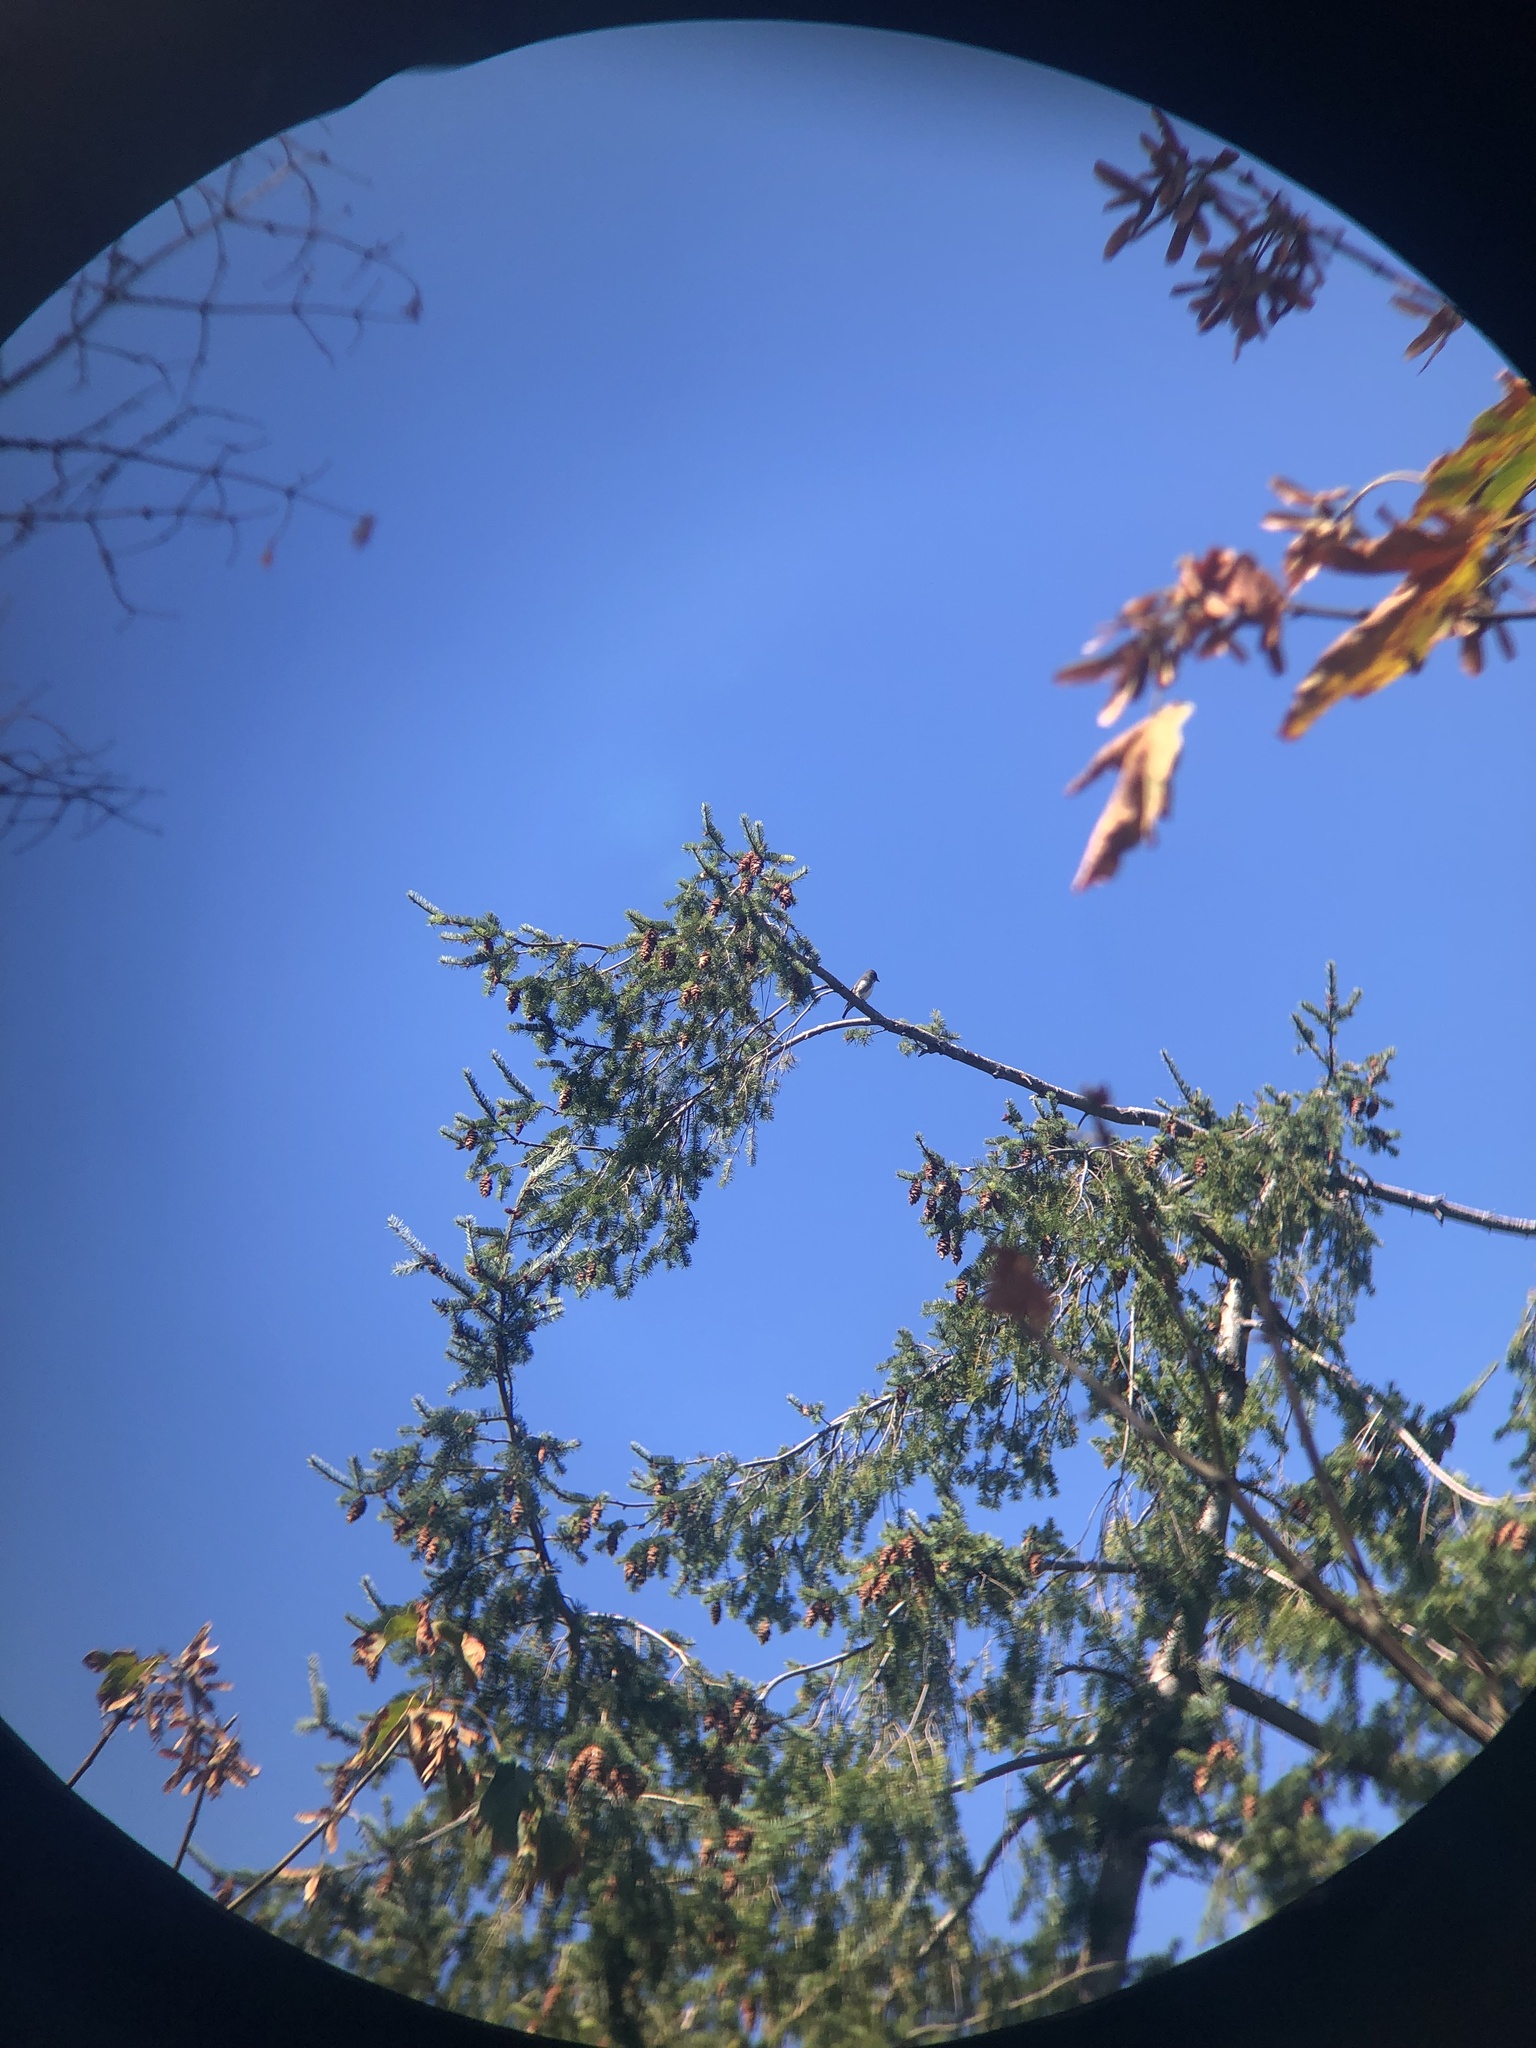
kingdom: Animalia
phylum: Chordata
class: Aves
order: Passeriformes
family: Tyrannidae
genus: Contopus
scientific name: Contopus cooperi
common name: Olive-sided flycatcher
